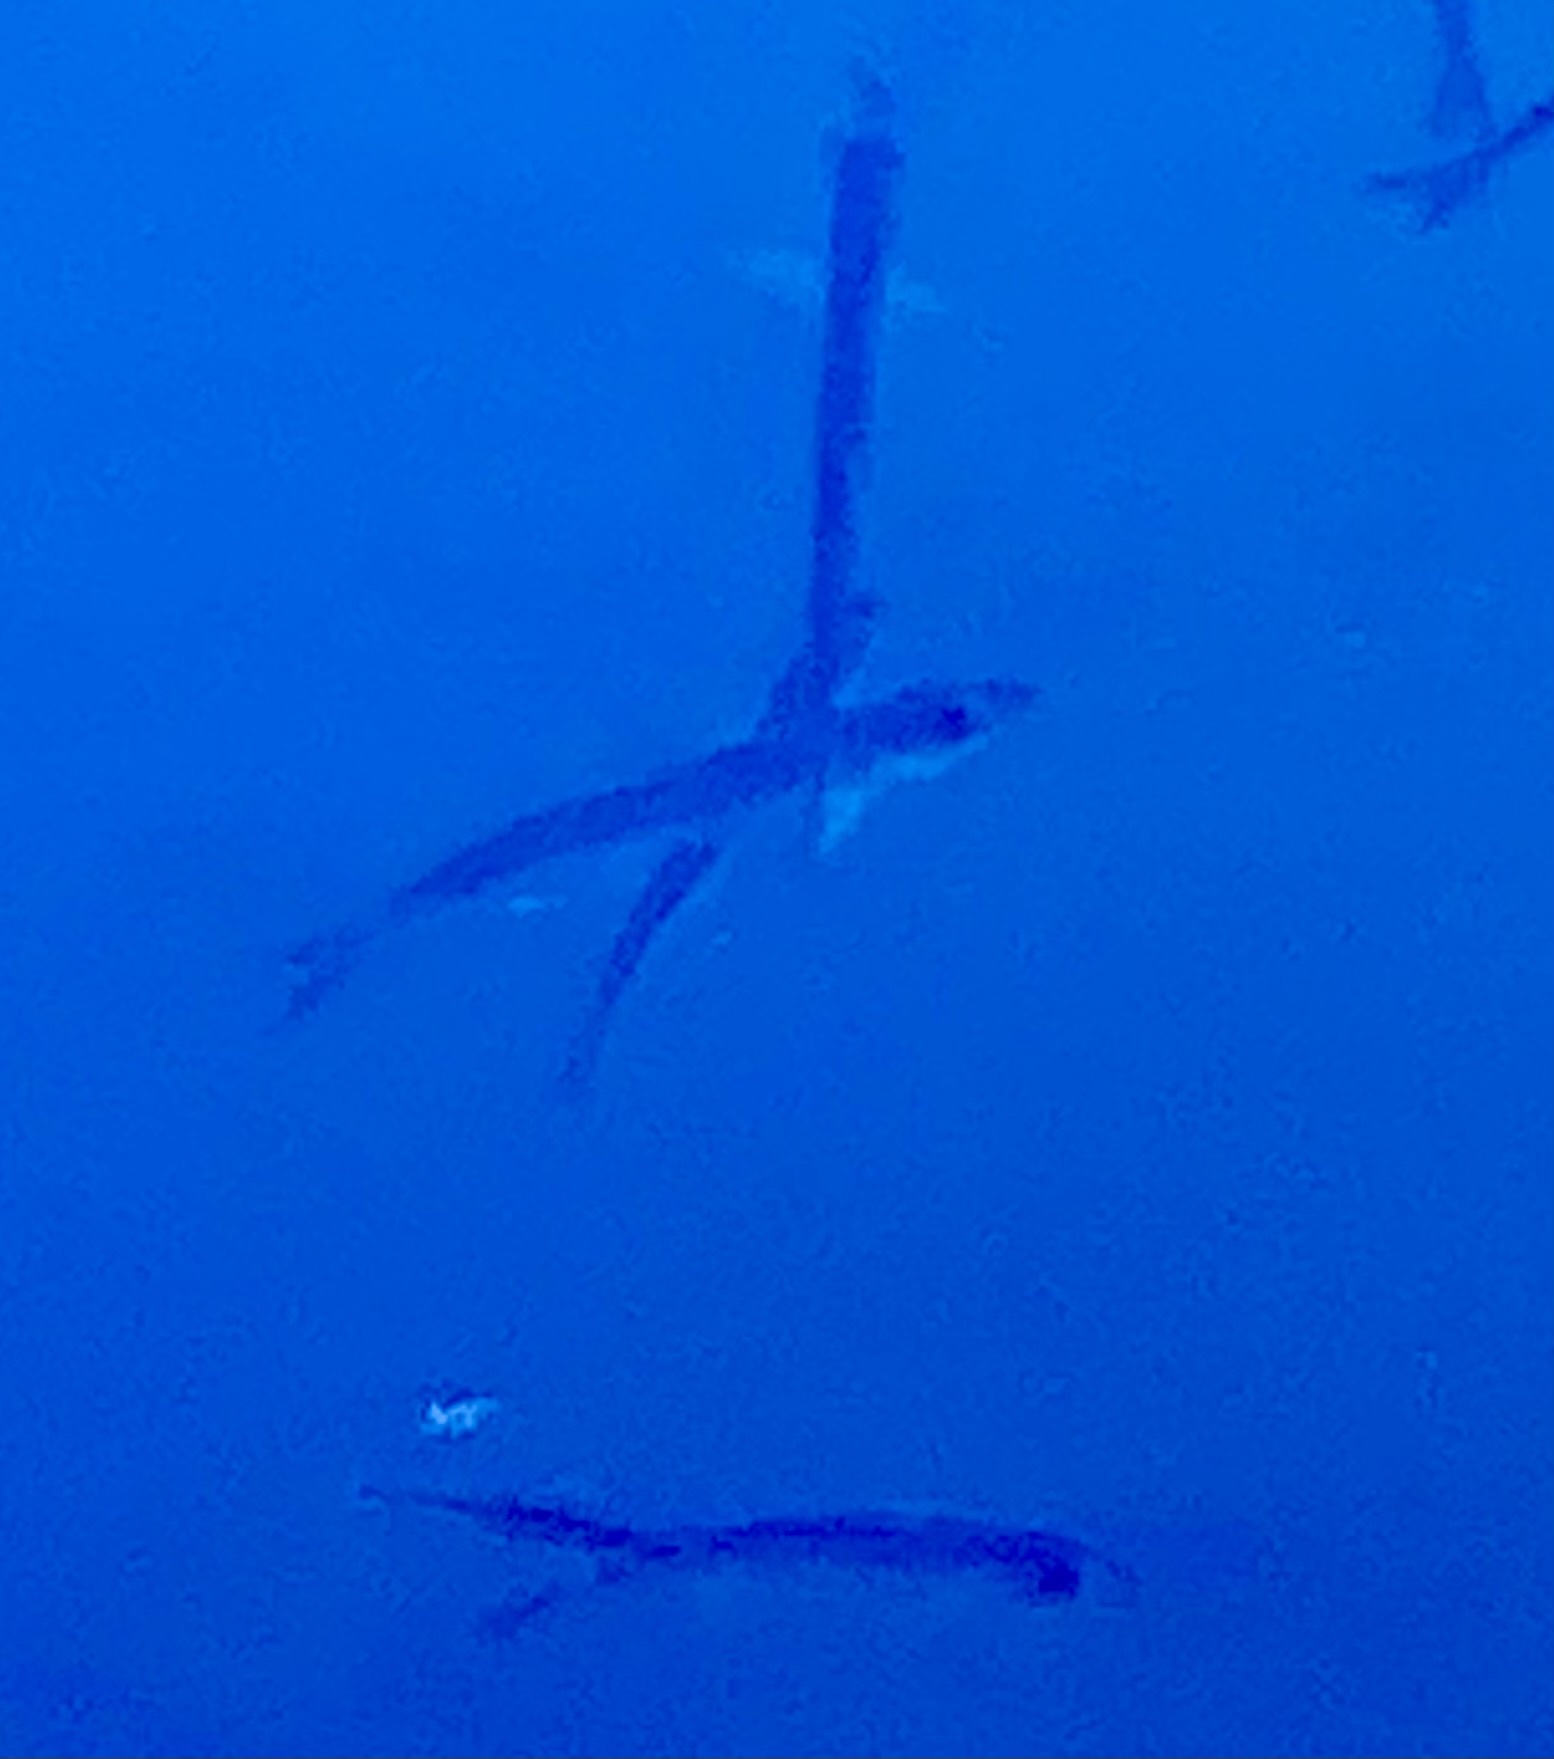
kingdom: Animalia
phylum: Chordata
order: Clupeiformes
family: Clupeidae
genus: Clupea
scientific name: Clupea pallasii
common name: Pacific herring
